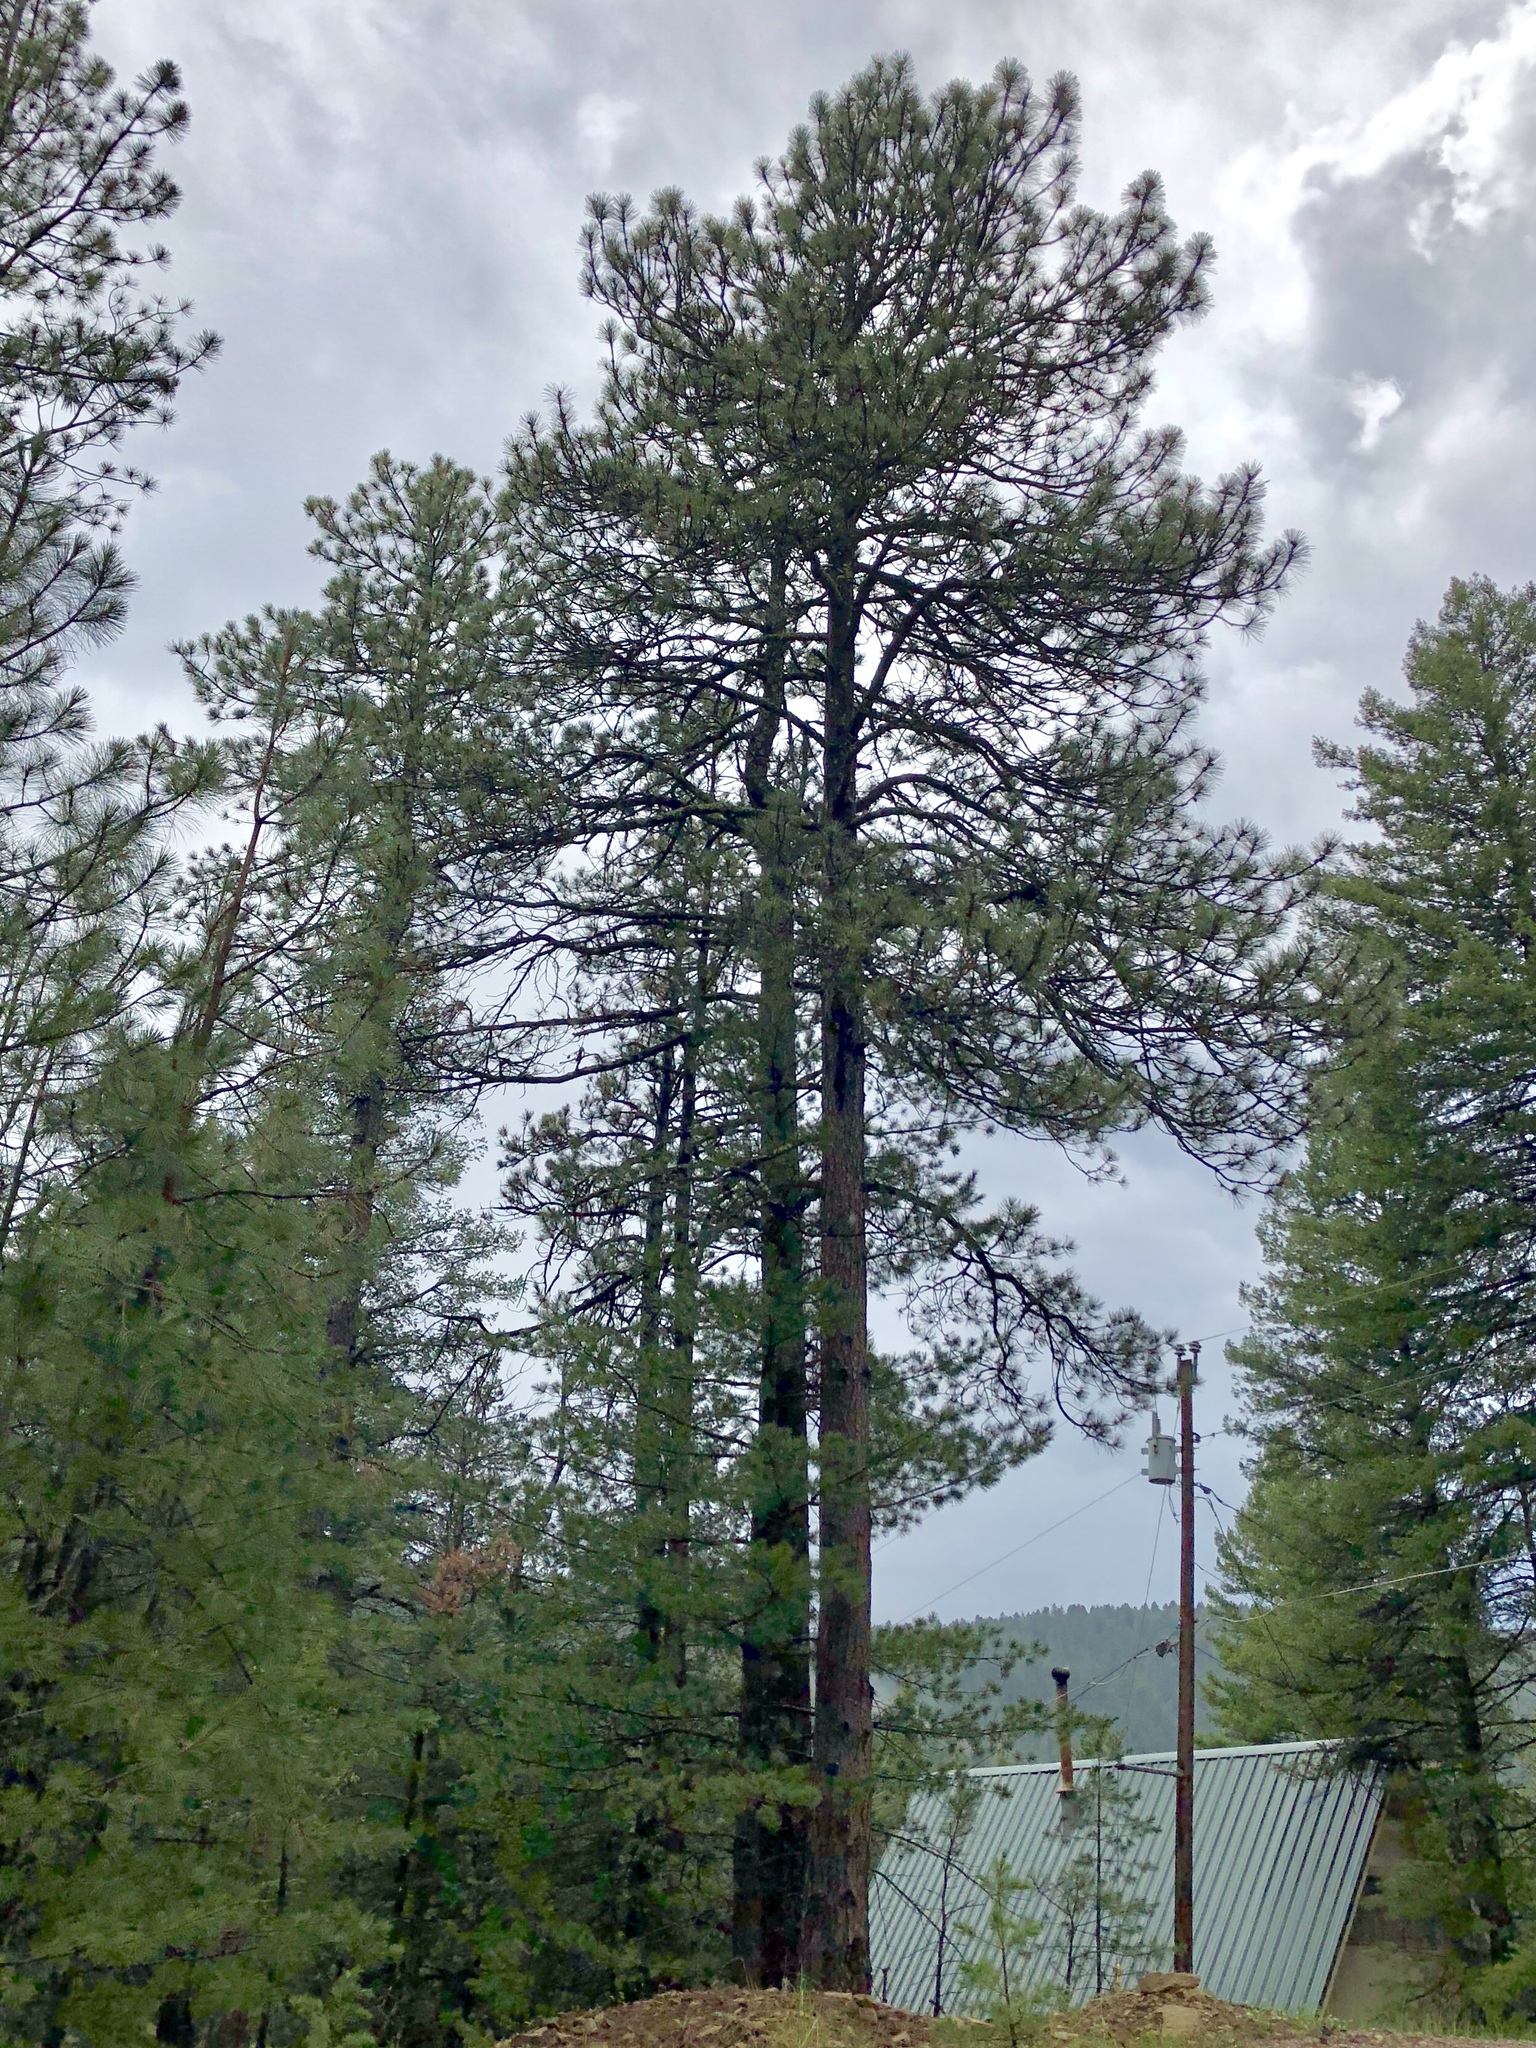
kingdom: Plantae
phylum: Tracheophyta
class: Pinopsida
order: Pinales
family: Pinaceae
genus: Pinus
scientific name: Pinus ponderosa
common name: Western yellow-pine
